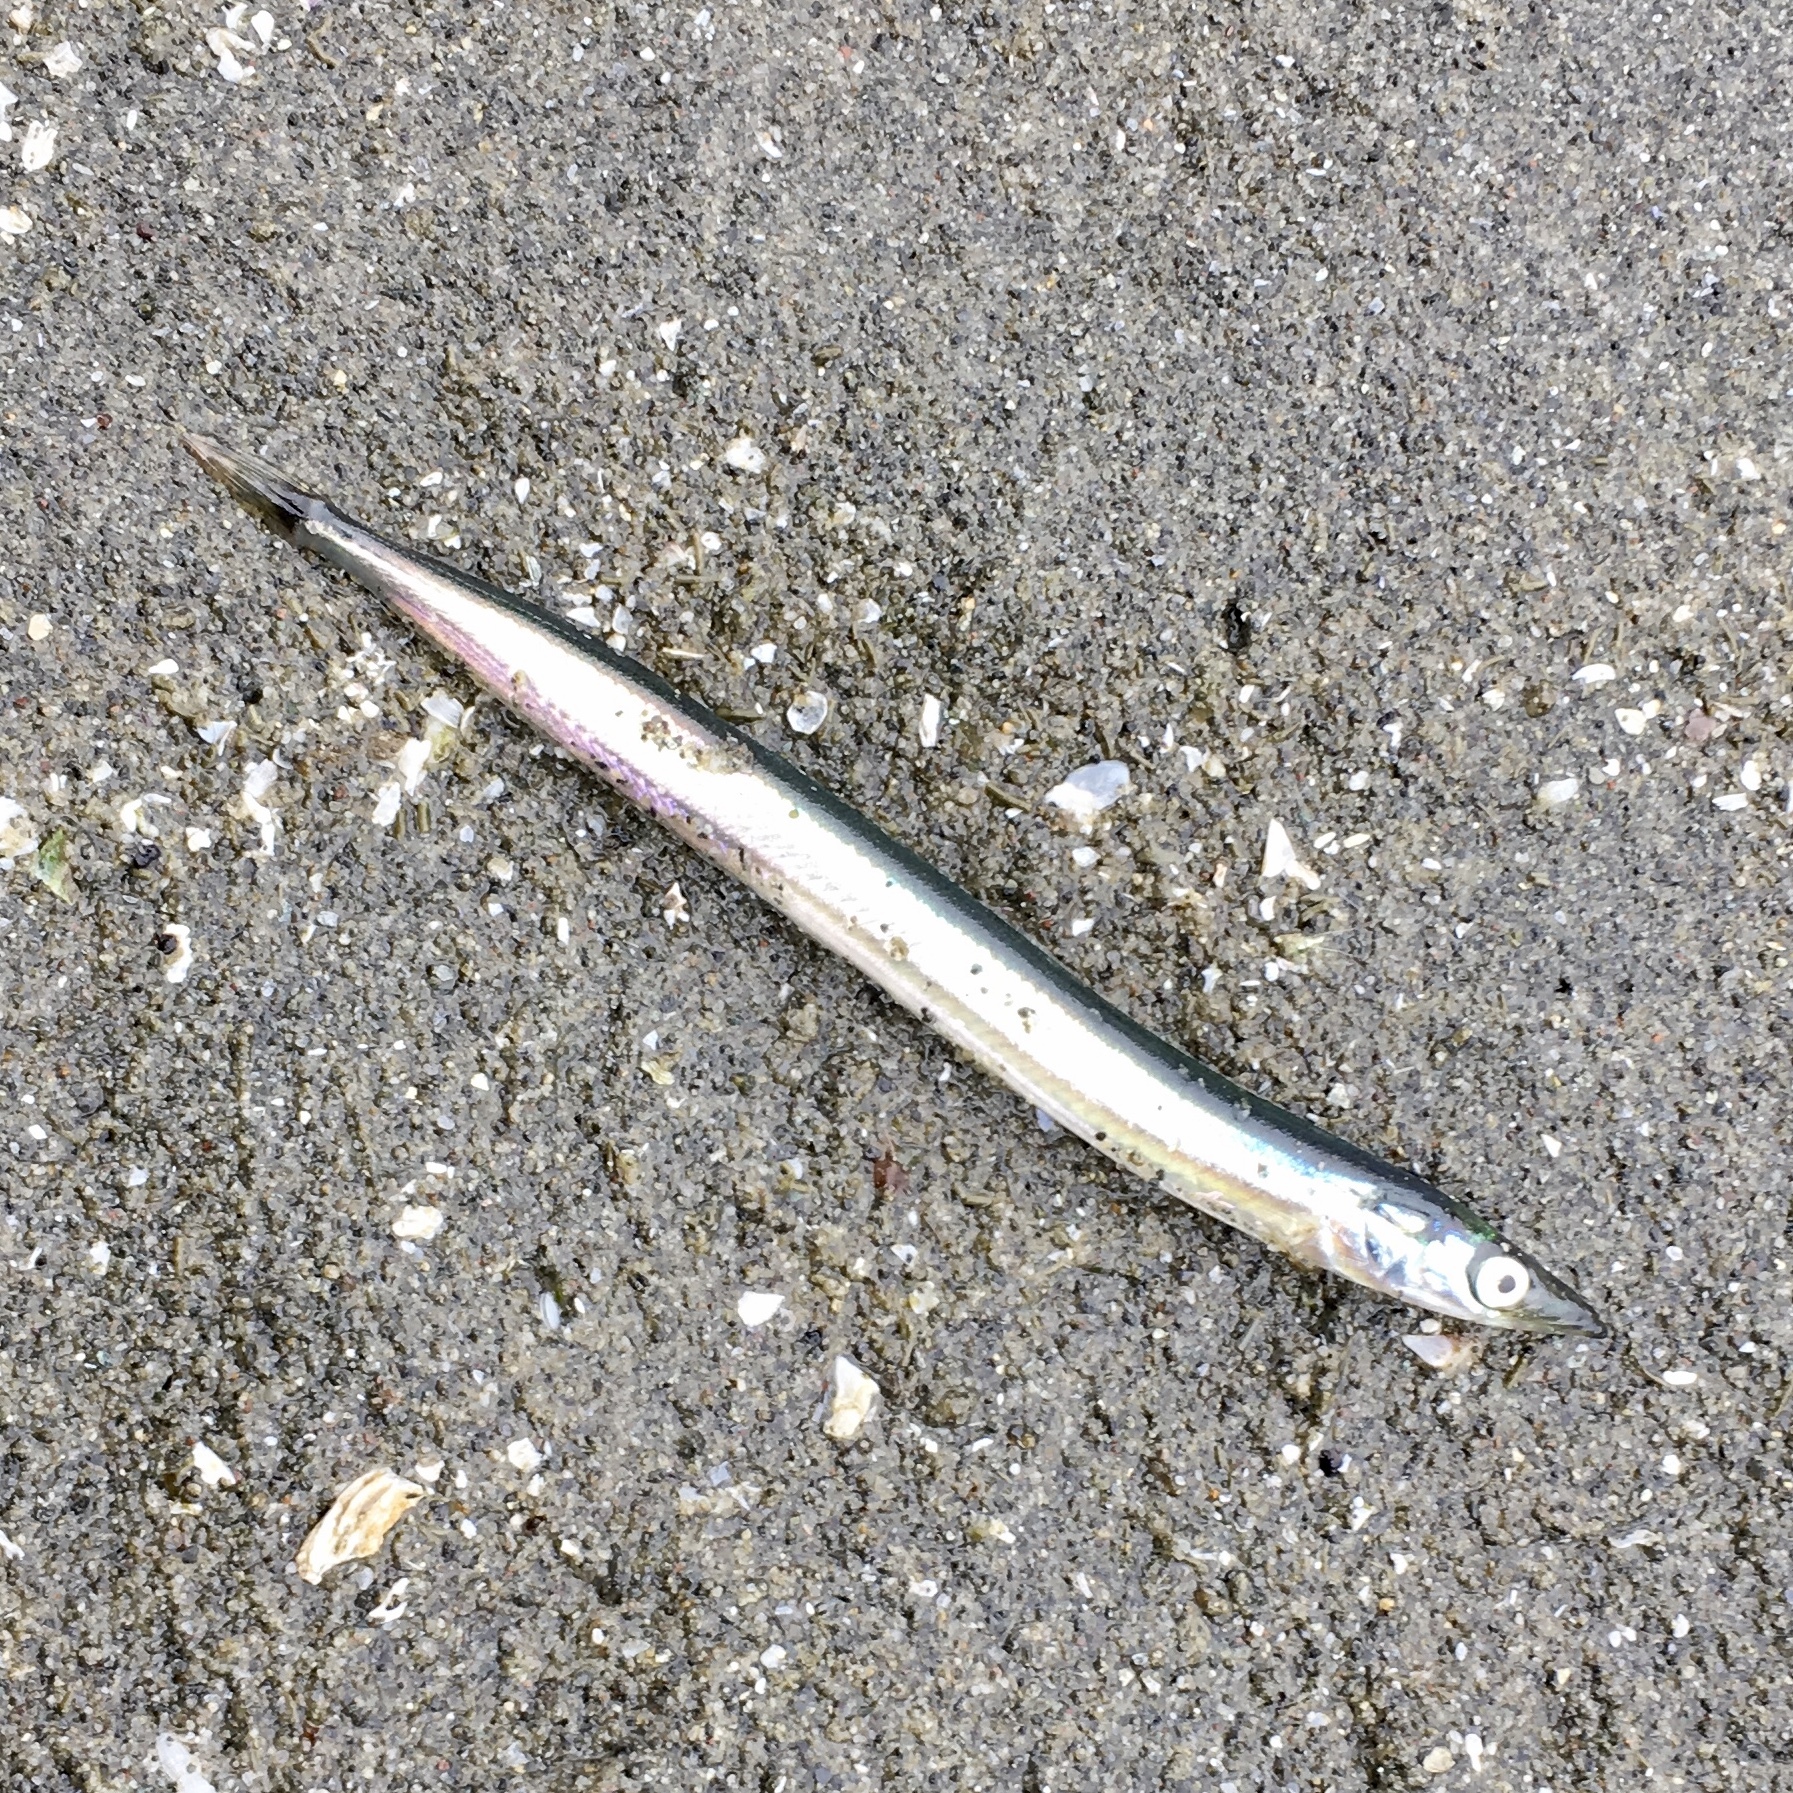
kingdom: Animalia
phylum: Chordata
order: Perciformes
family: Ammodytidae
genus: Ammodytes
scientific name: Ammodytes personatus
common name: Japanese sand lance
